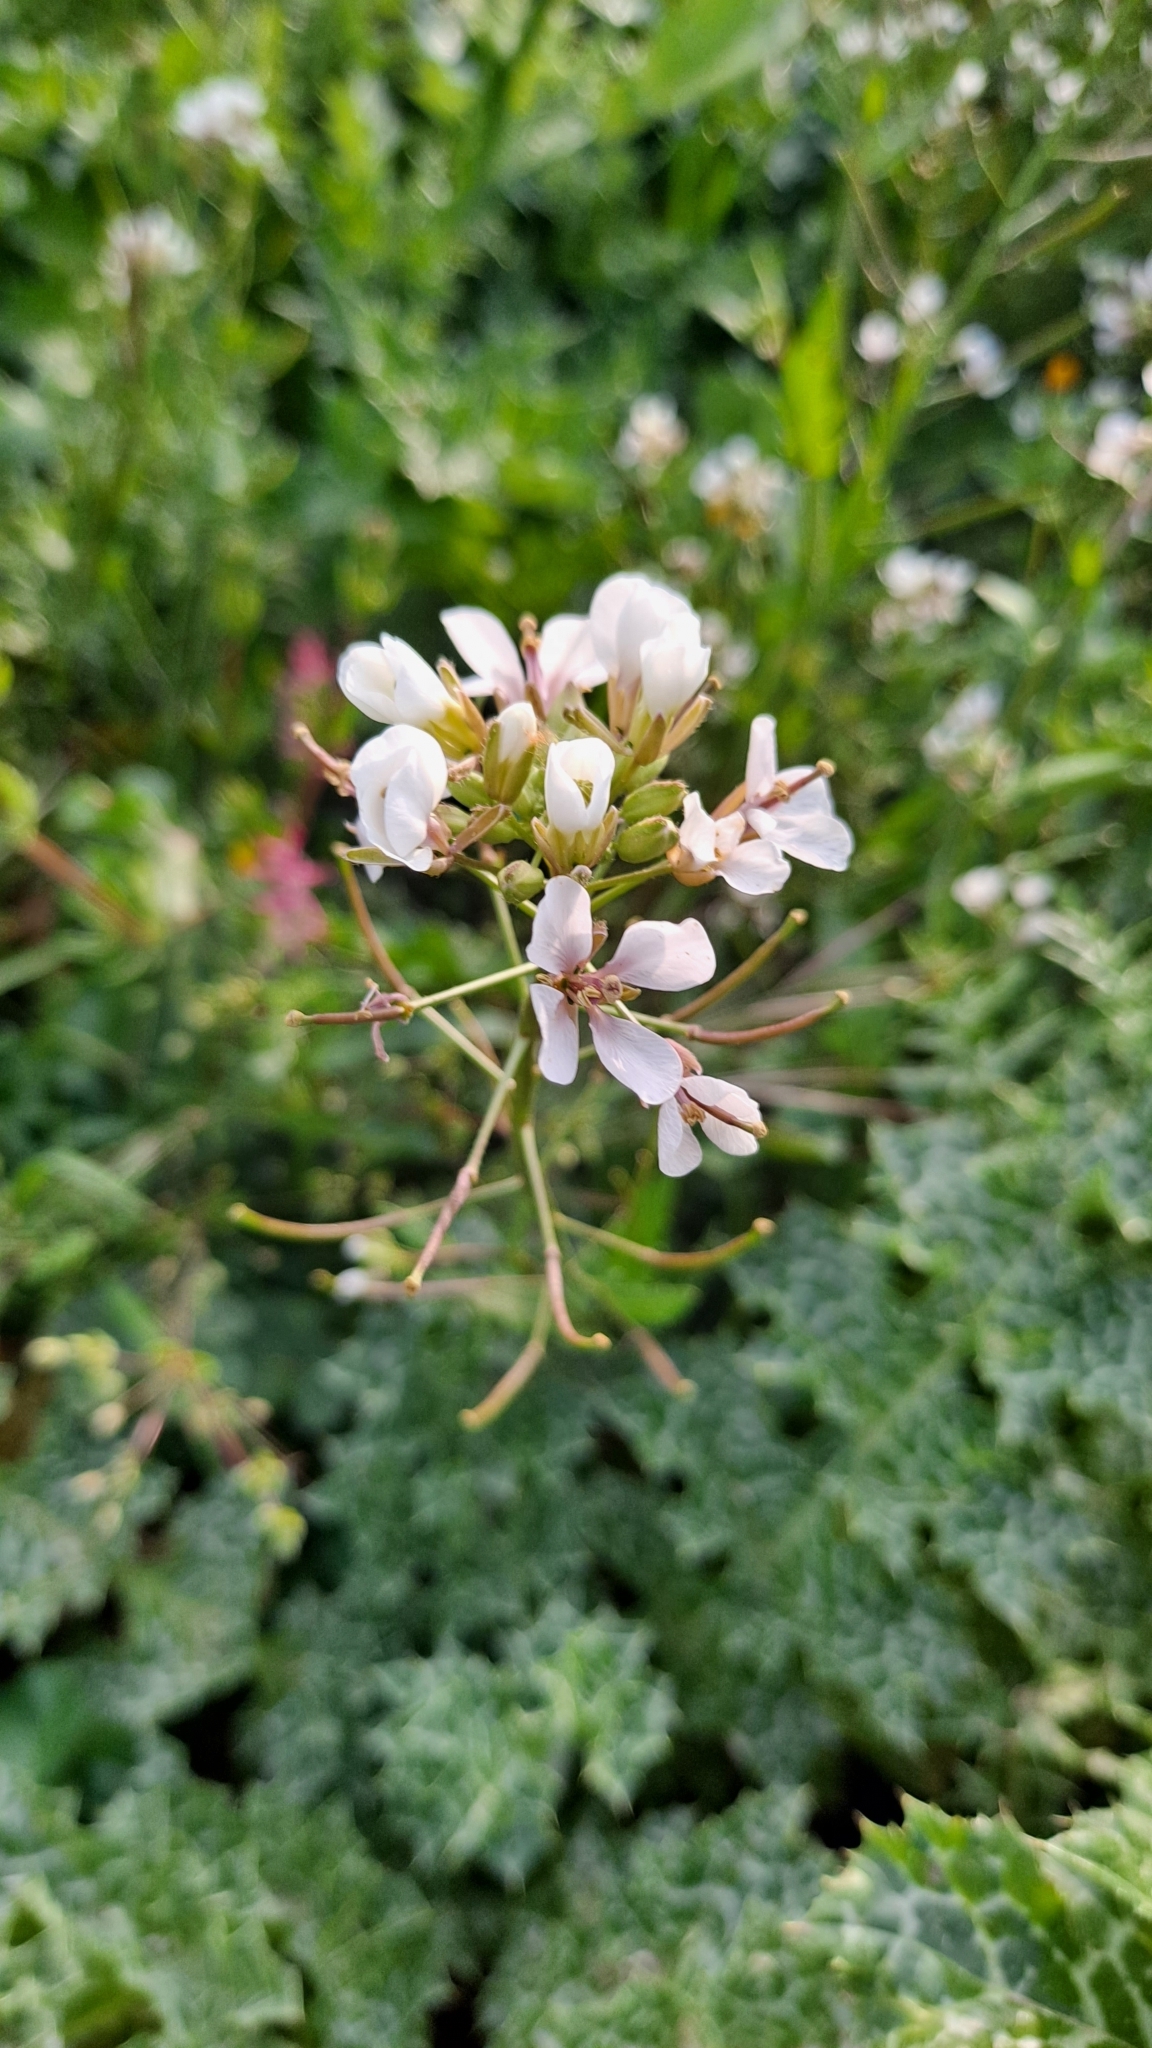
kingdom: Plantae
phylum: Tracheophyta
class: Magnoliopsida
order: Brassicales
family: Brassicaceae
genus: Diplotaxis
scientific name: Diplotaxis erucoides
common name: White rocket
